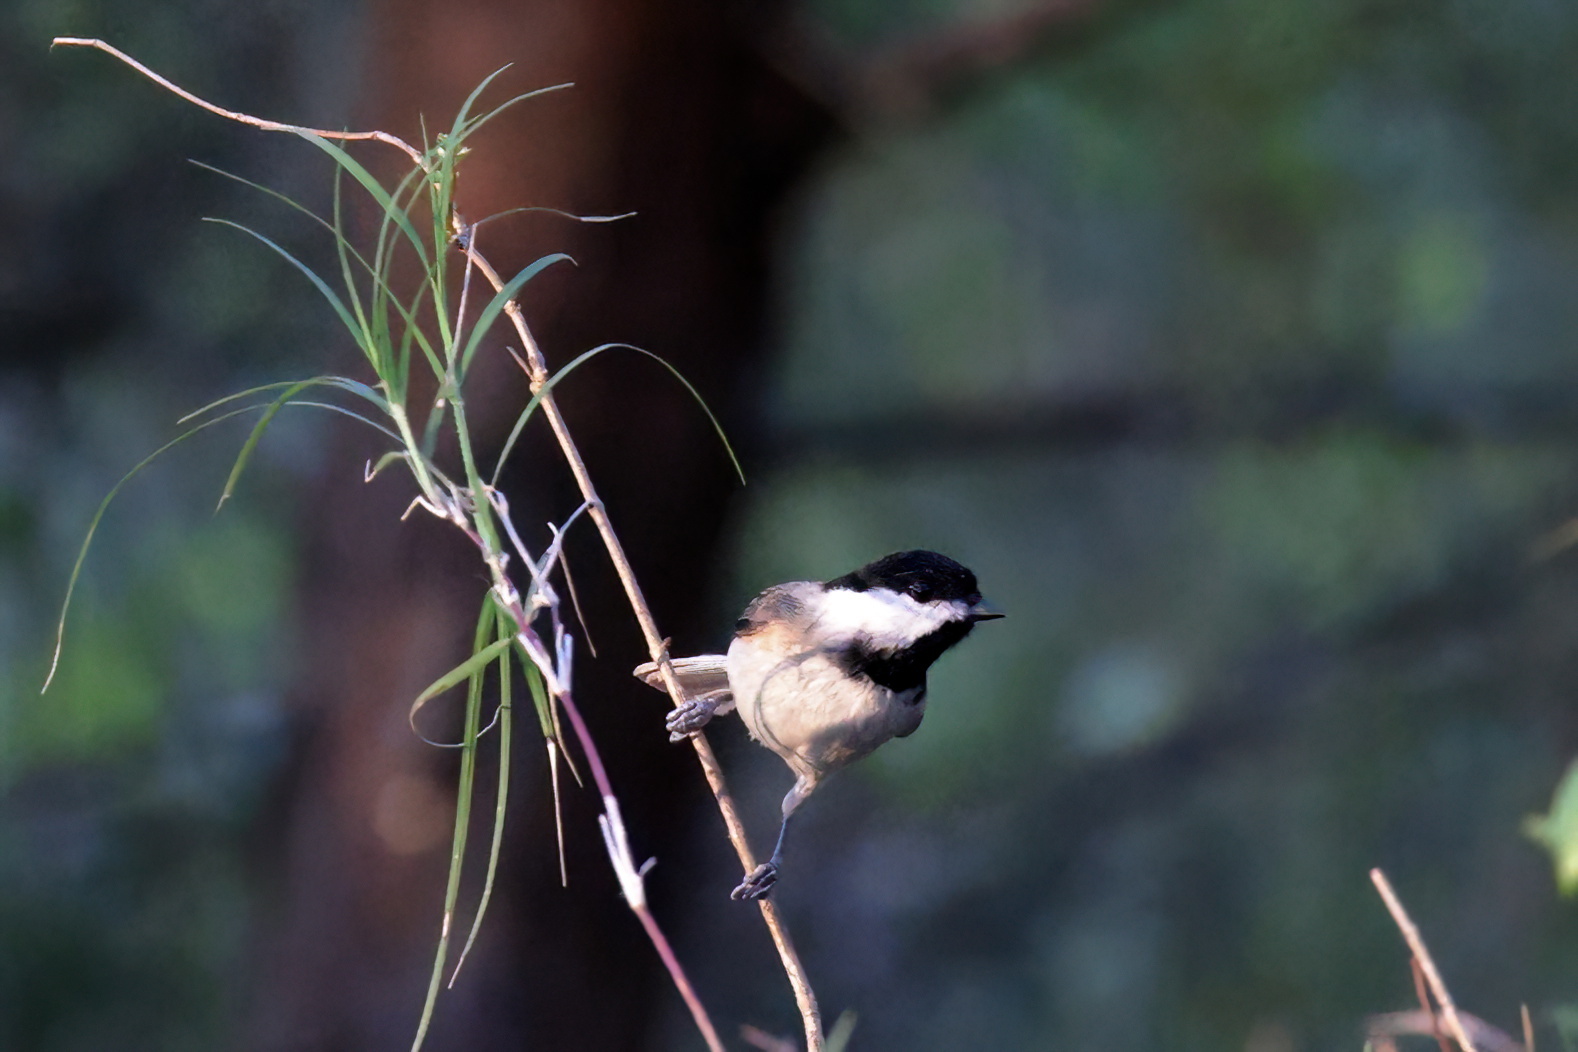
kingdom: Animalia
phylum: Chordata
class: Aves
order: Passeriformes
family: Paridae
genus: Poecile
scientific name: Poecile carolinensis
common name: Carolina chickadee
